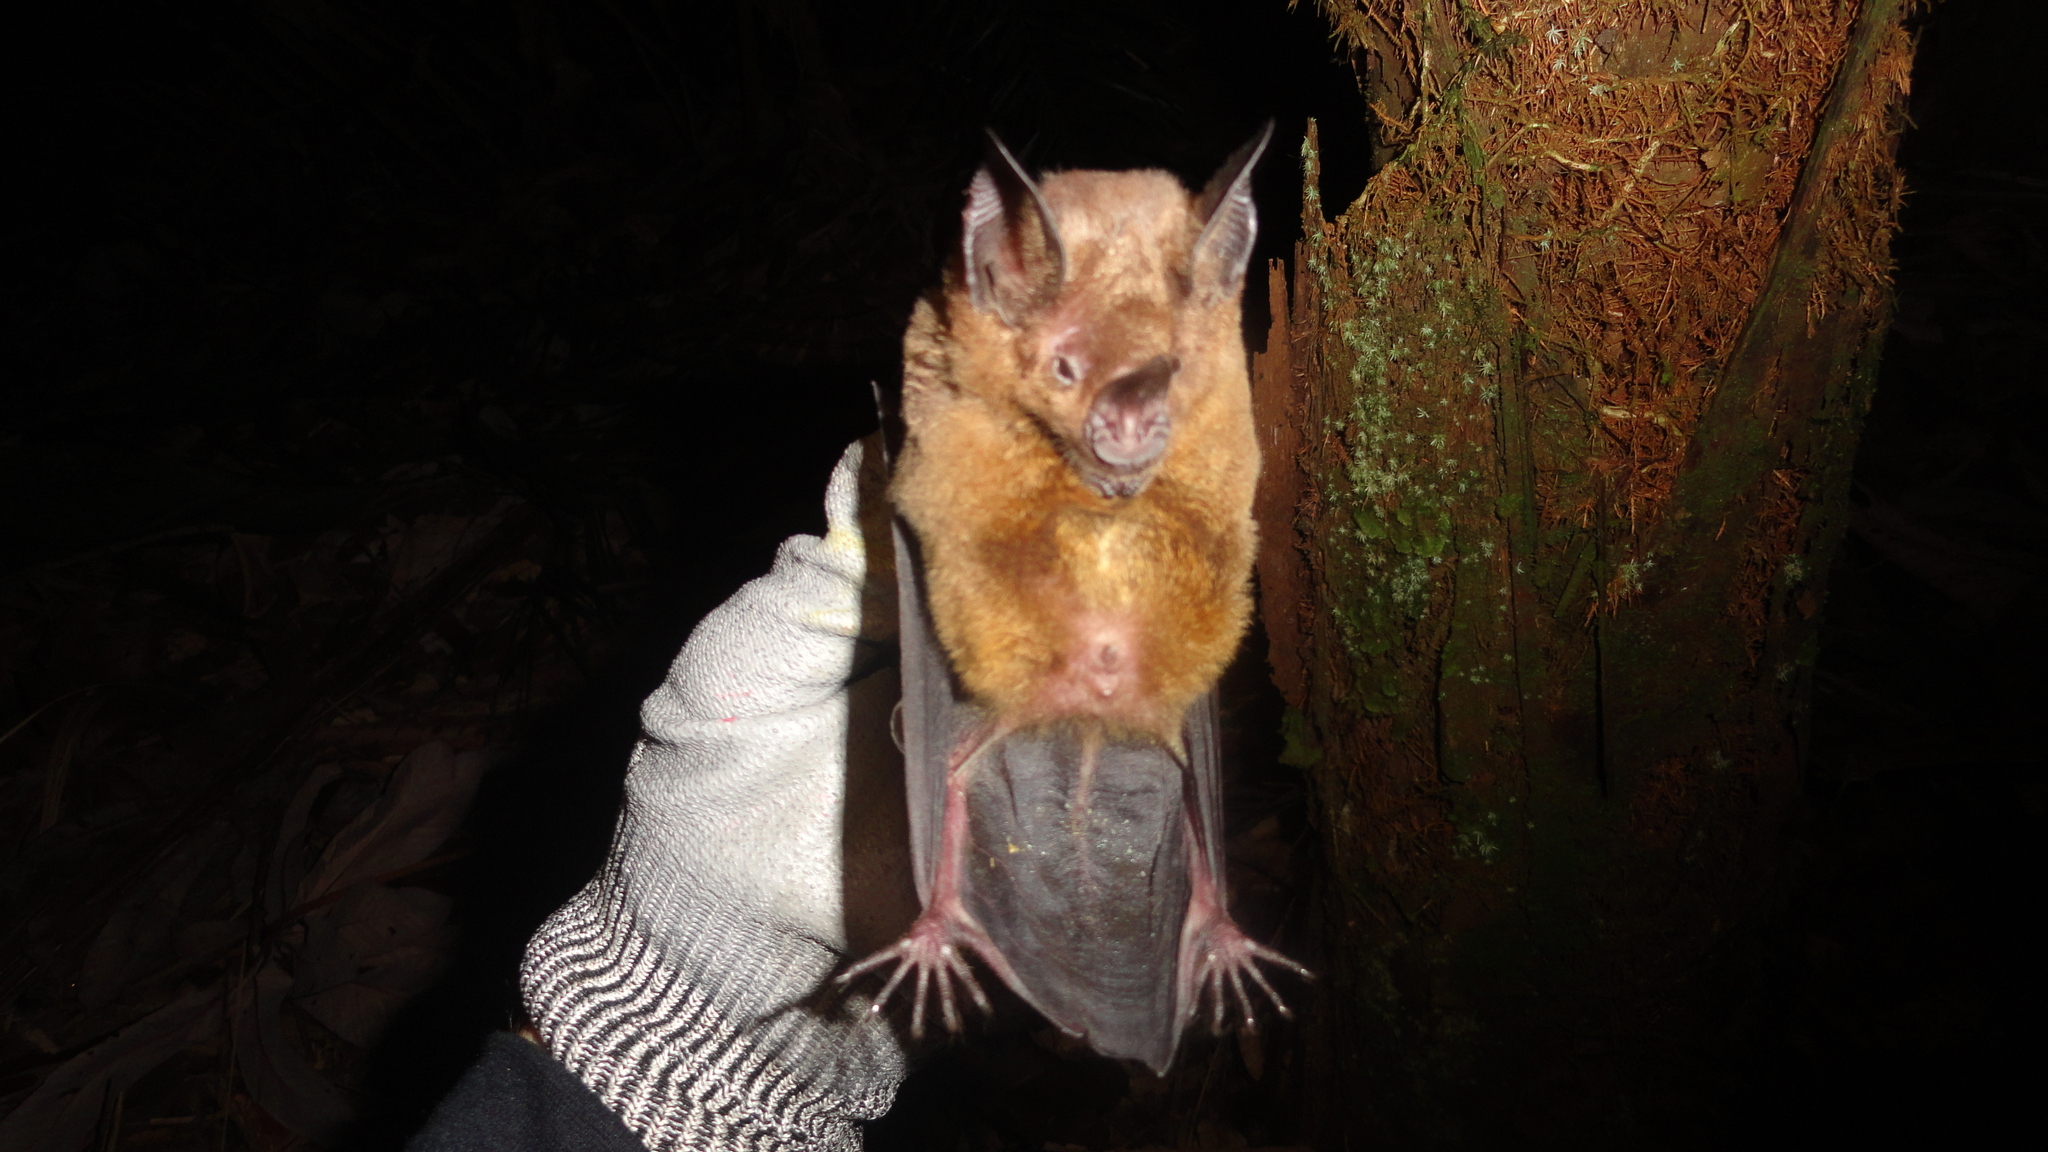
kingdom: Animalia
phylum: Chordata
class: Mammalia
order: Chiroptera
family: Phyllostomidae
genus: Phyllostomus
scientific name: Phyllostomus elongatus
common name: Lesser spear-nosed bat
